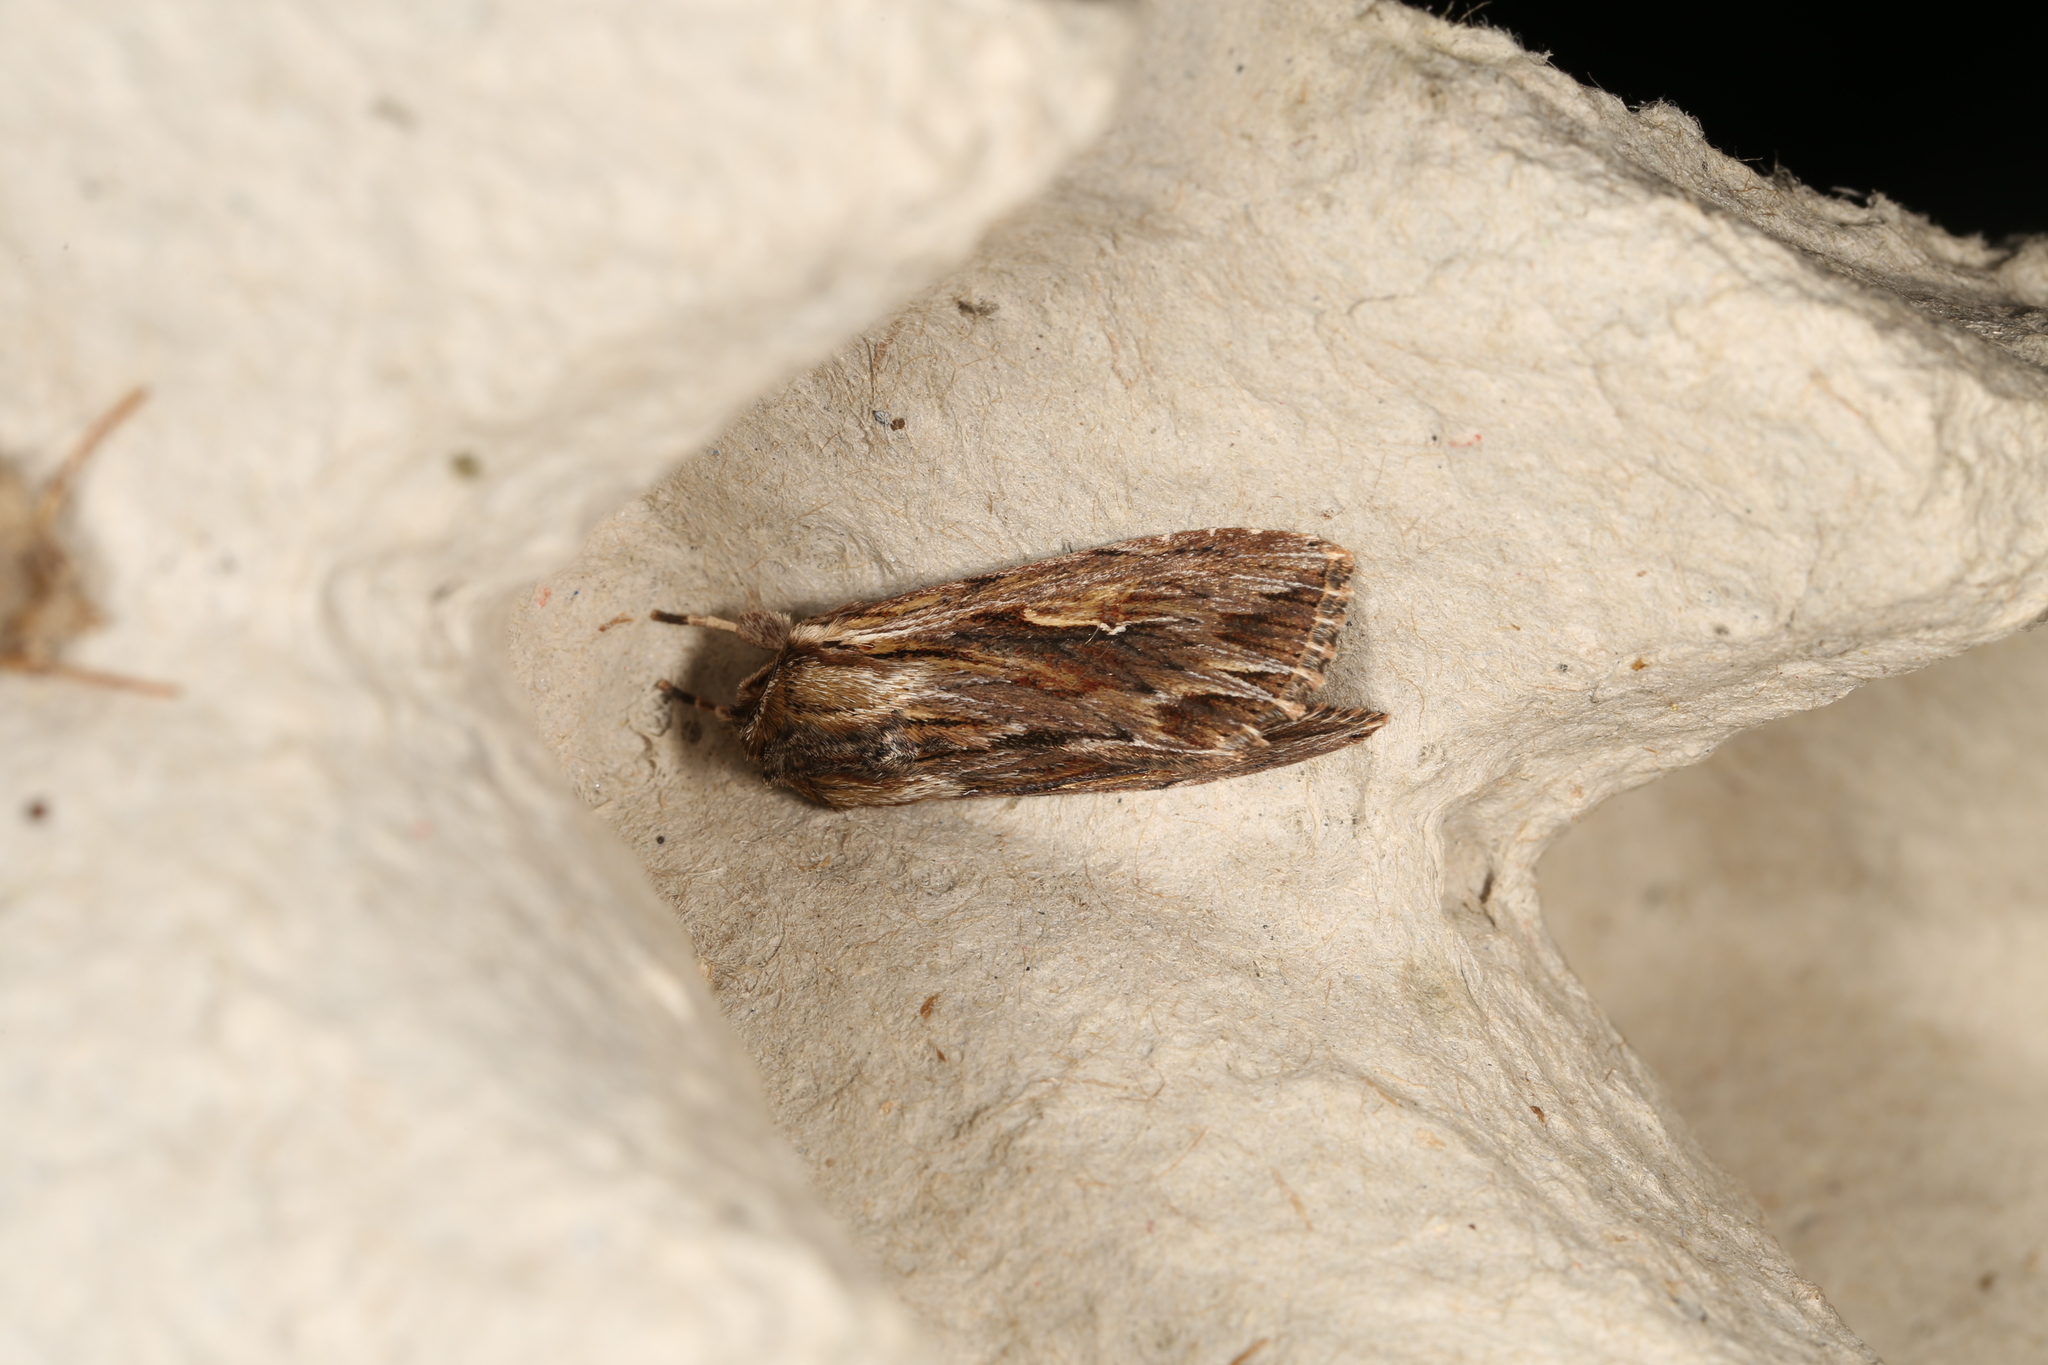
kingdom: Animalia
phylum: Arthropoda
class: Insecta
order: Lepidoptera
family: Noctuidae
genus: Persectania
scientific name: Persectania ewingii
